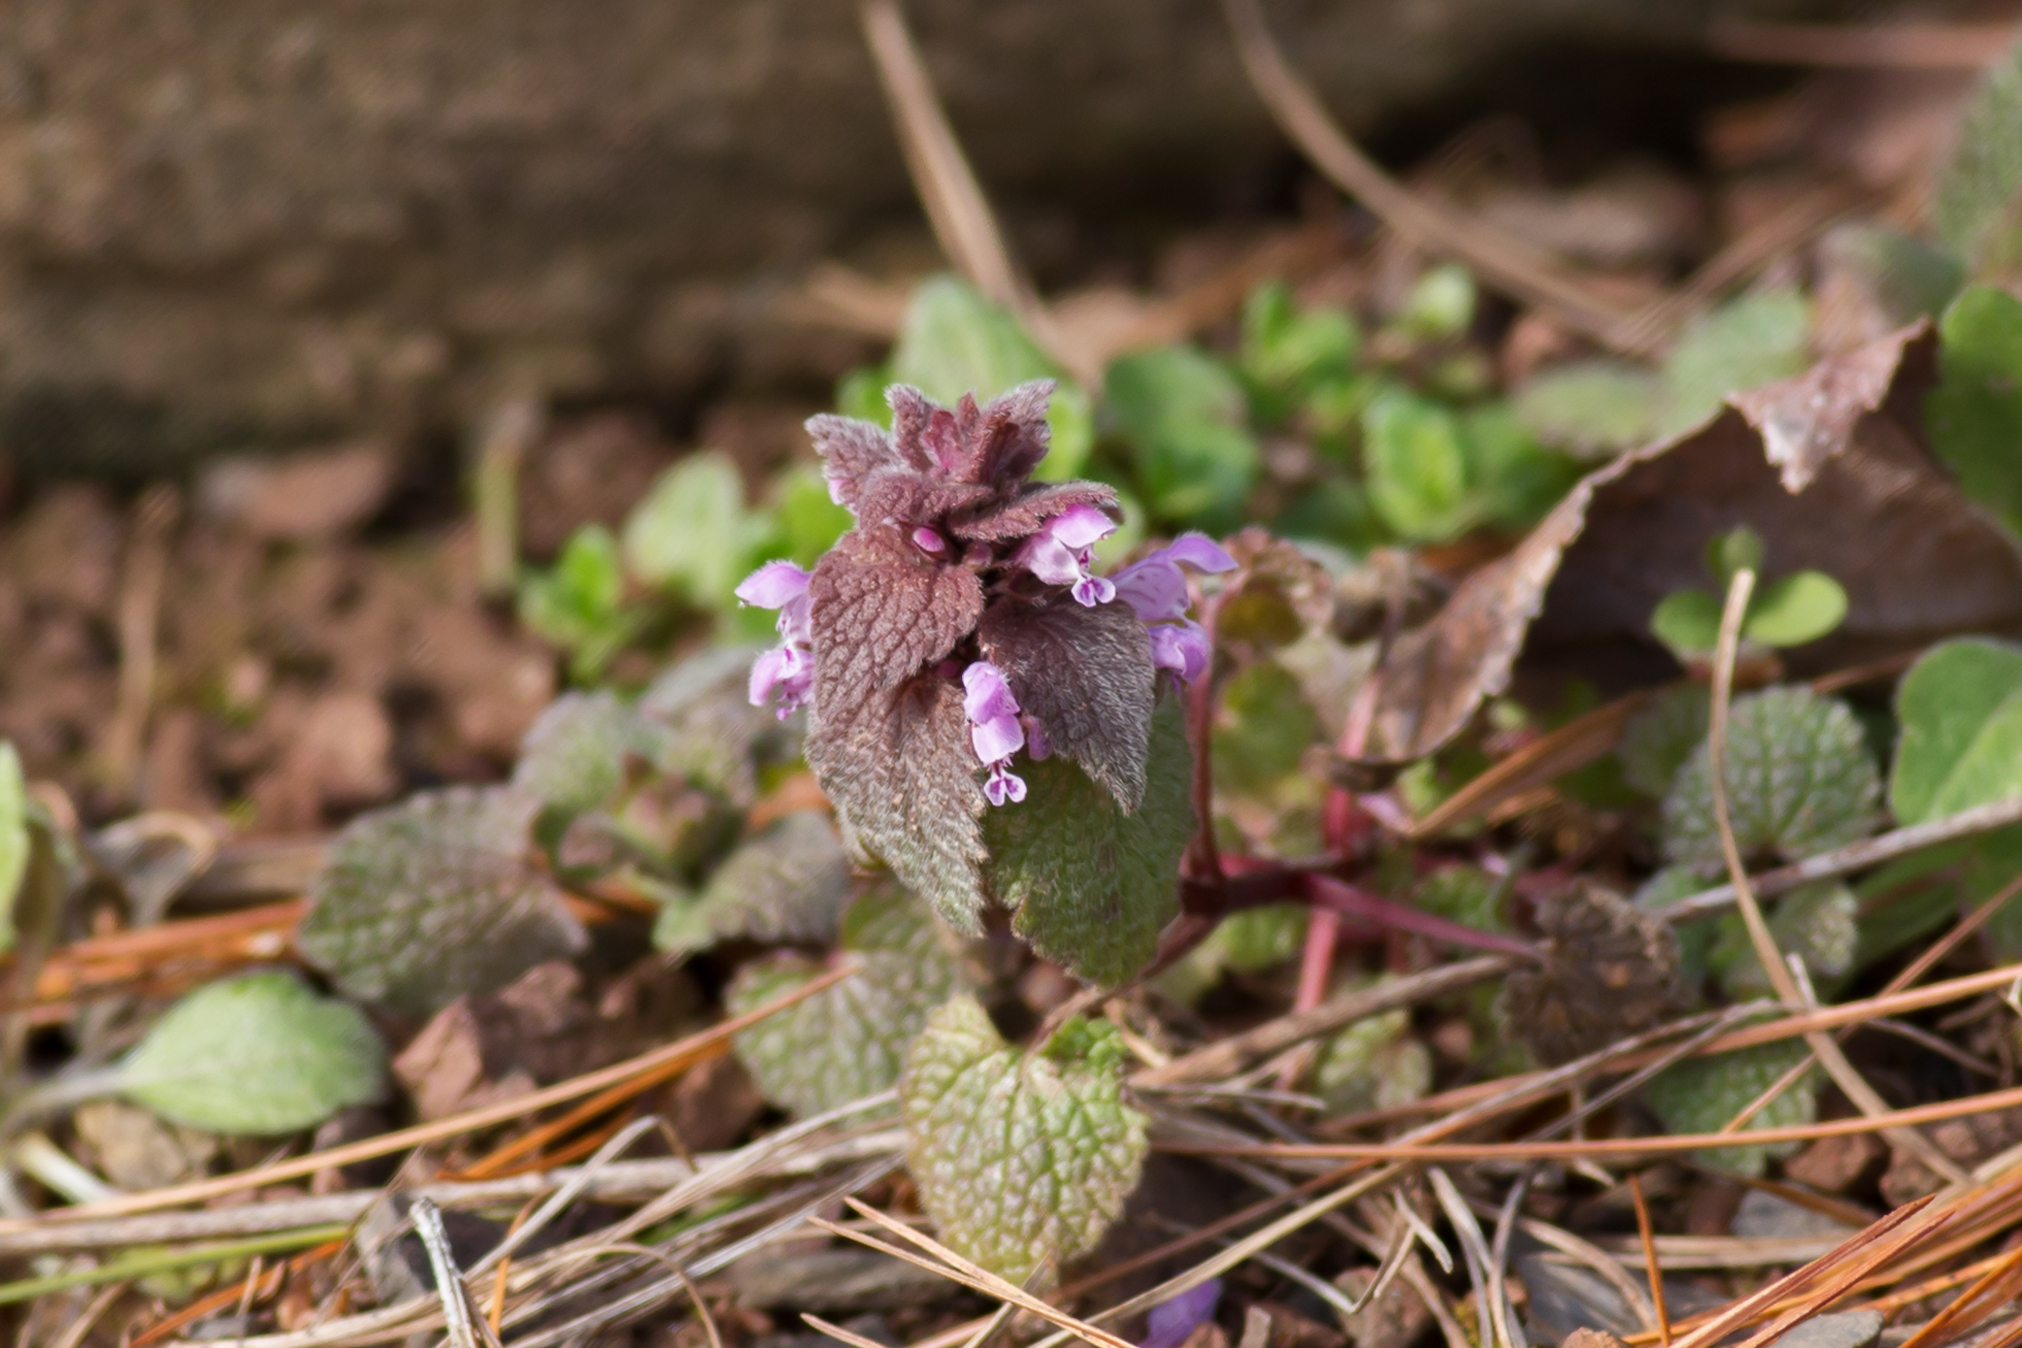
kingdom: Plantae
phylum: Tracheophyta
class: Magnoliopsida
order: Lamiales
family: Lamiaceae
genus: Lamium
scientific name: Lamium purpureum
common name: Red dead-nettle
